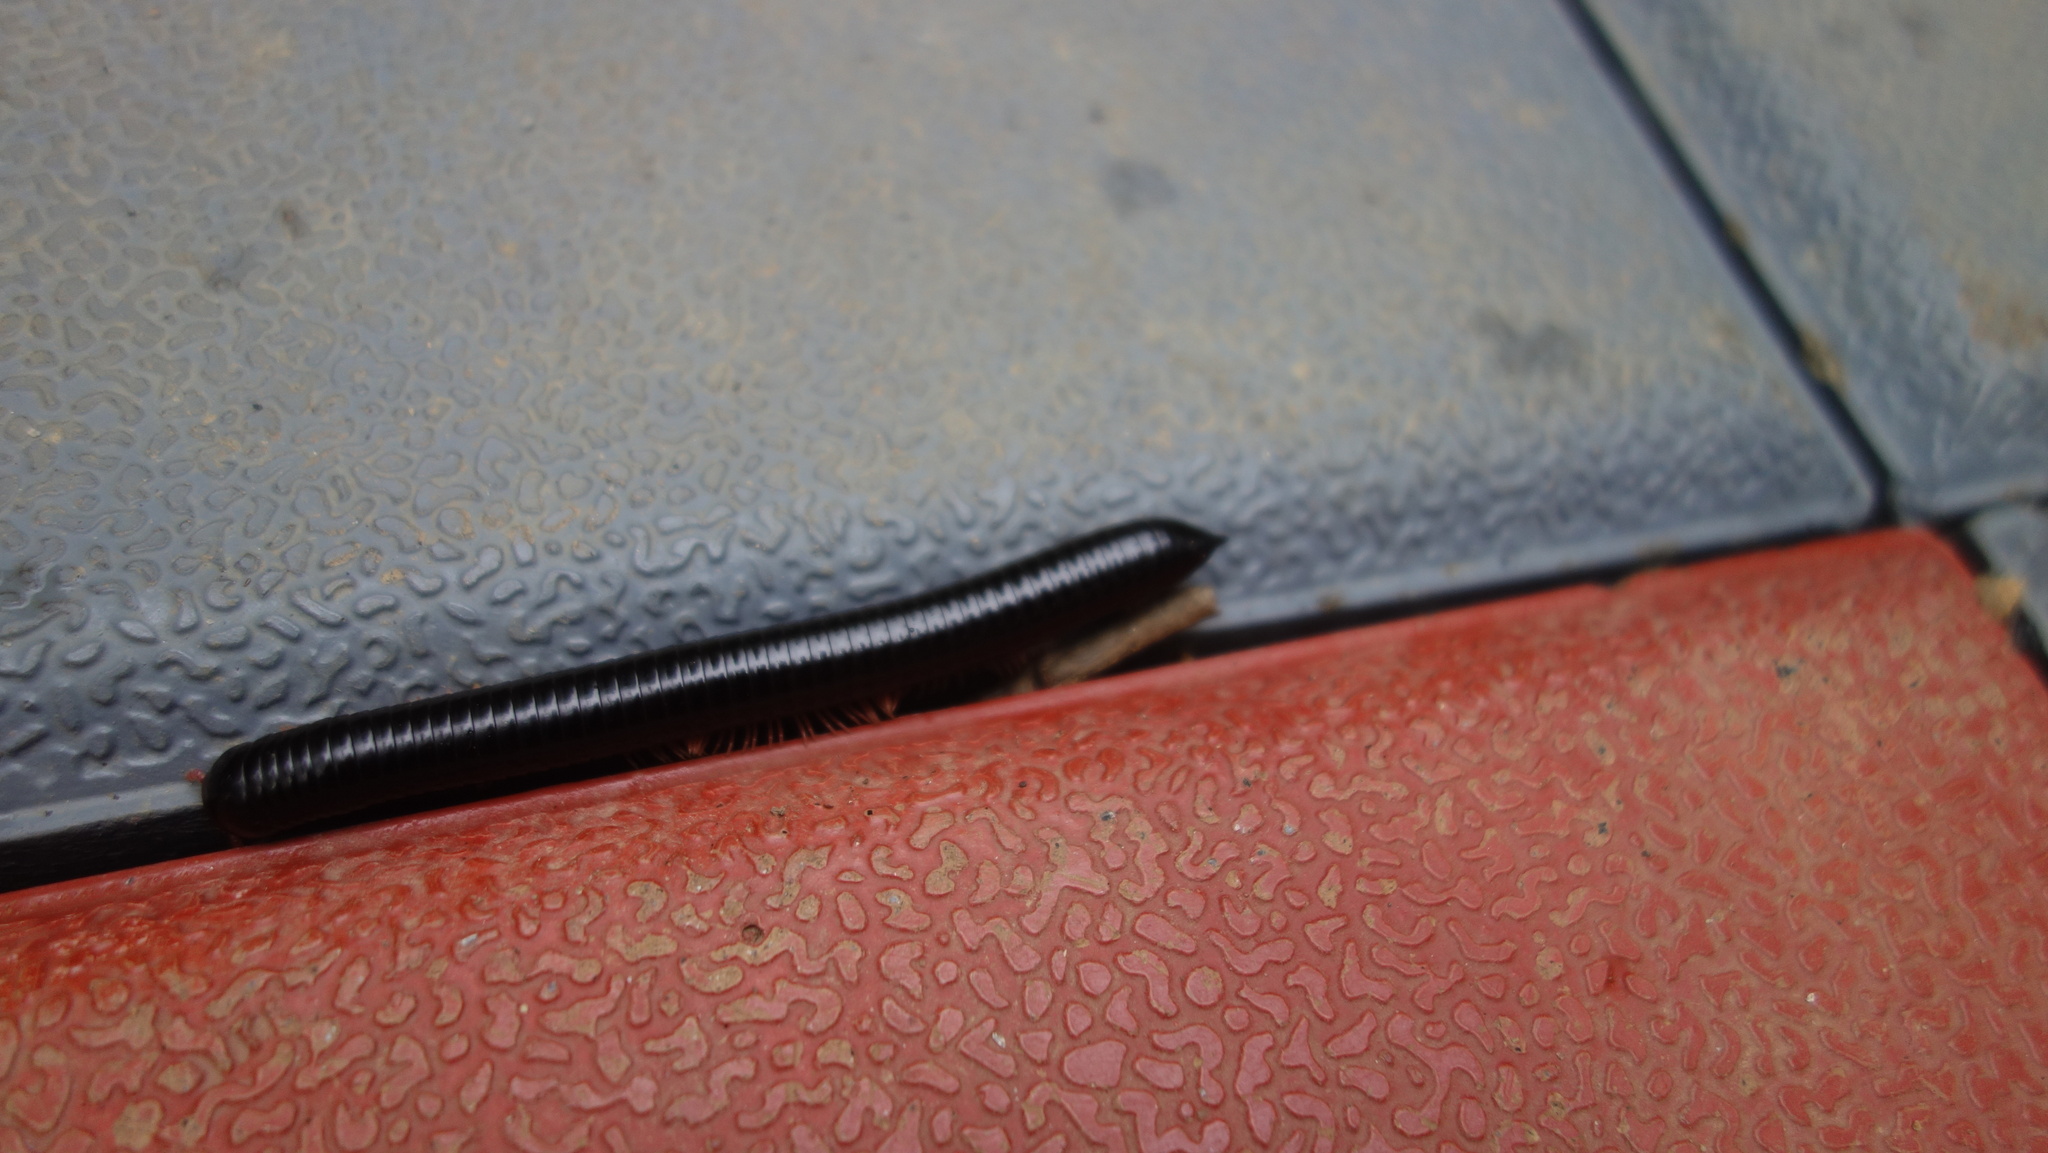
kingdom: Animalia
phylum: Arthropoda
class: Diplopoda
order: Spirostreptida
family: Harpagophoridae
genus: Phyllogonostreptus
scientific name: Phyllogonostreptus nigrolabiatus
